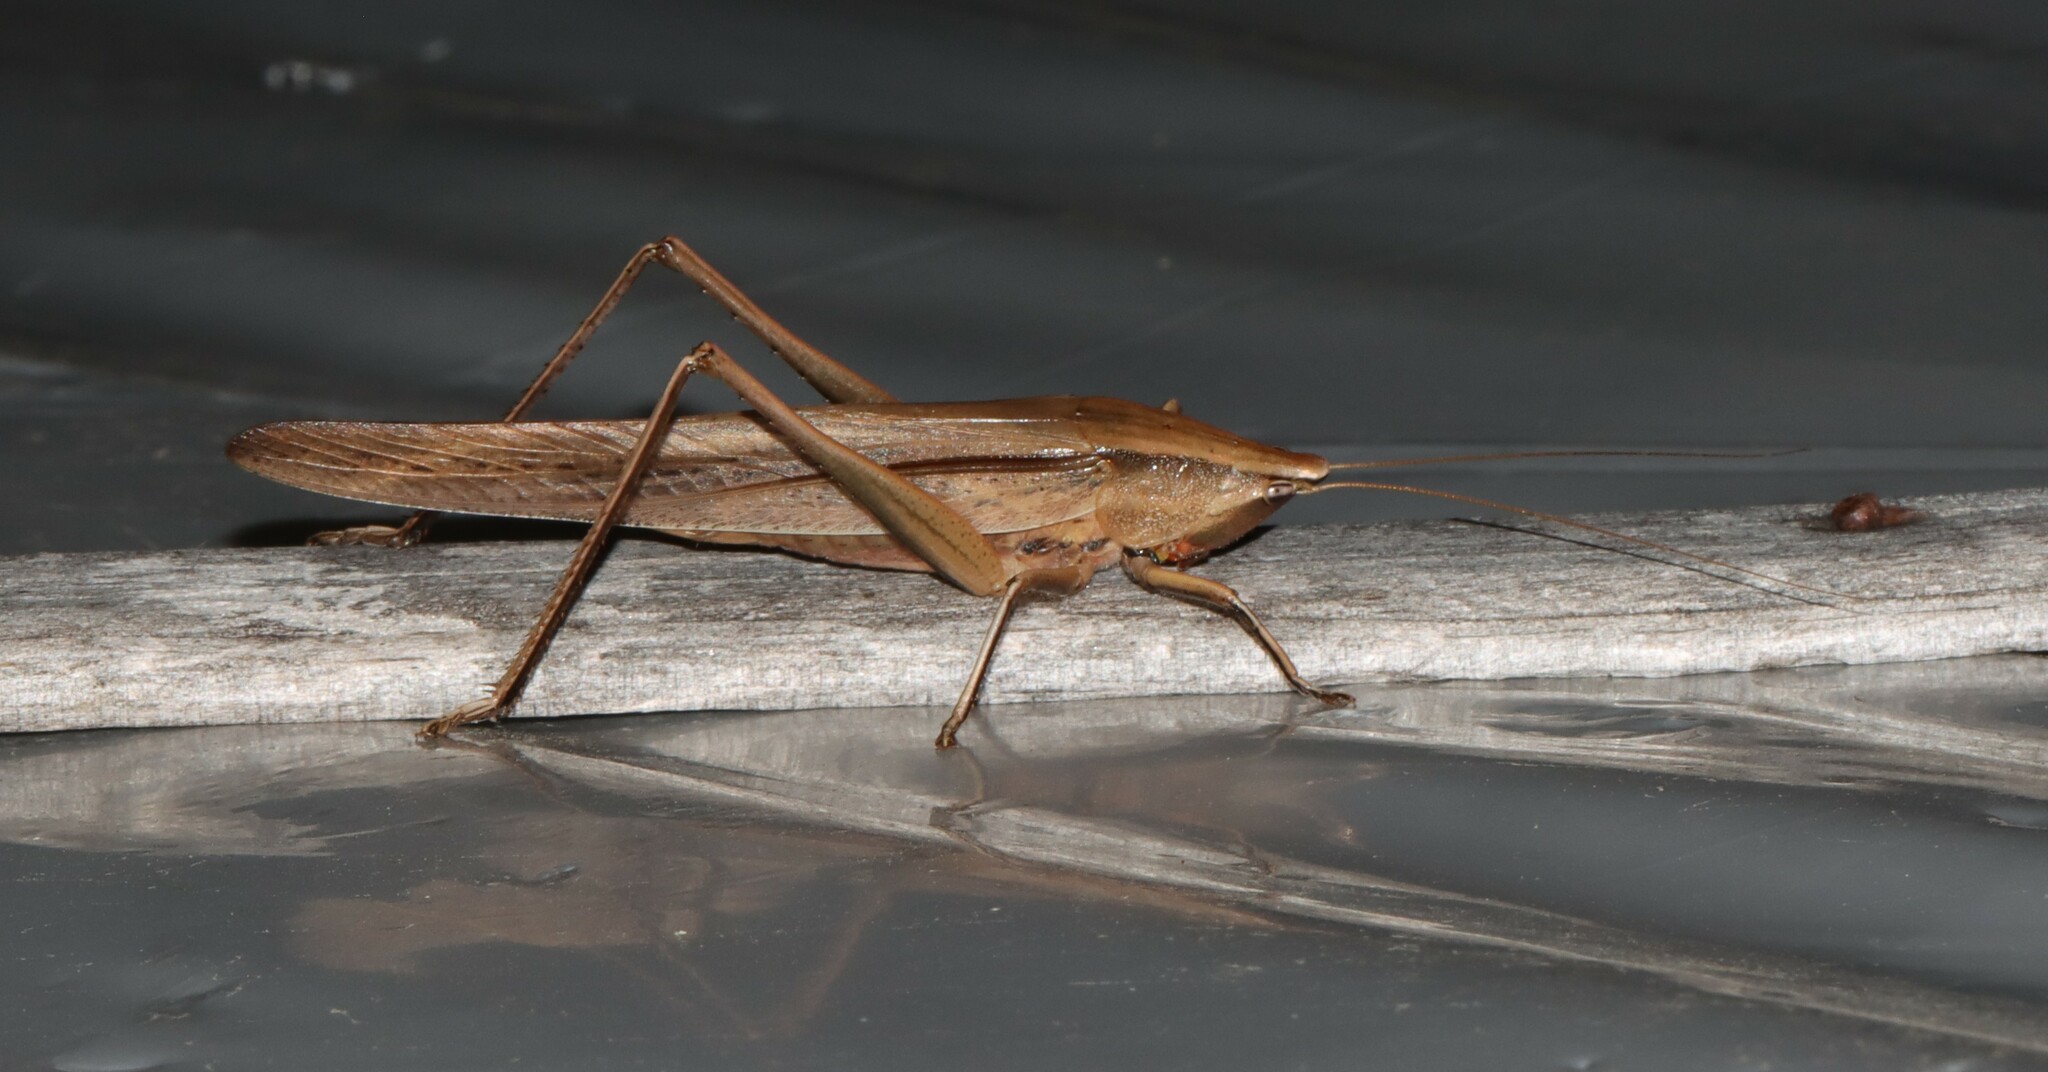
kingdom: Animalia
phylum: Arthropoda
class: Insecta
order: Orthoptera
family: Tettigoniidae
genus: Neoconocephalus
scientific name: Neoconocephalus triops
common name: Broad-tipped conehead
